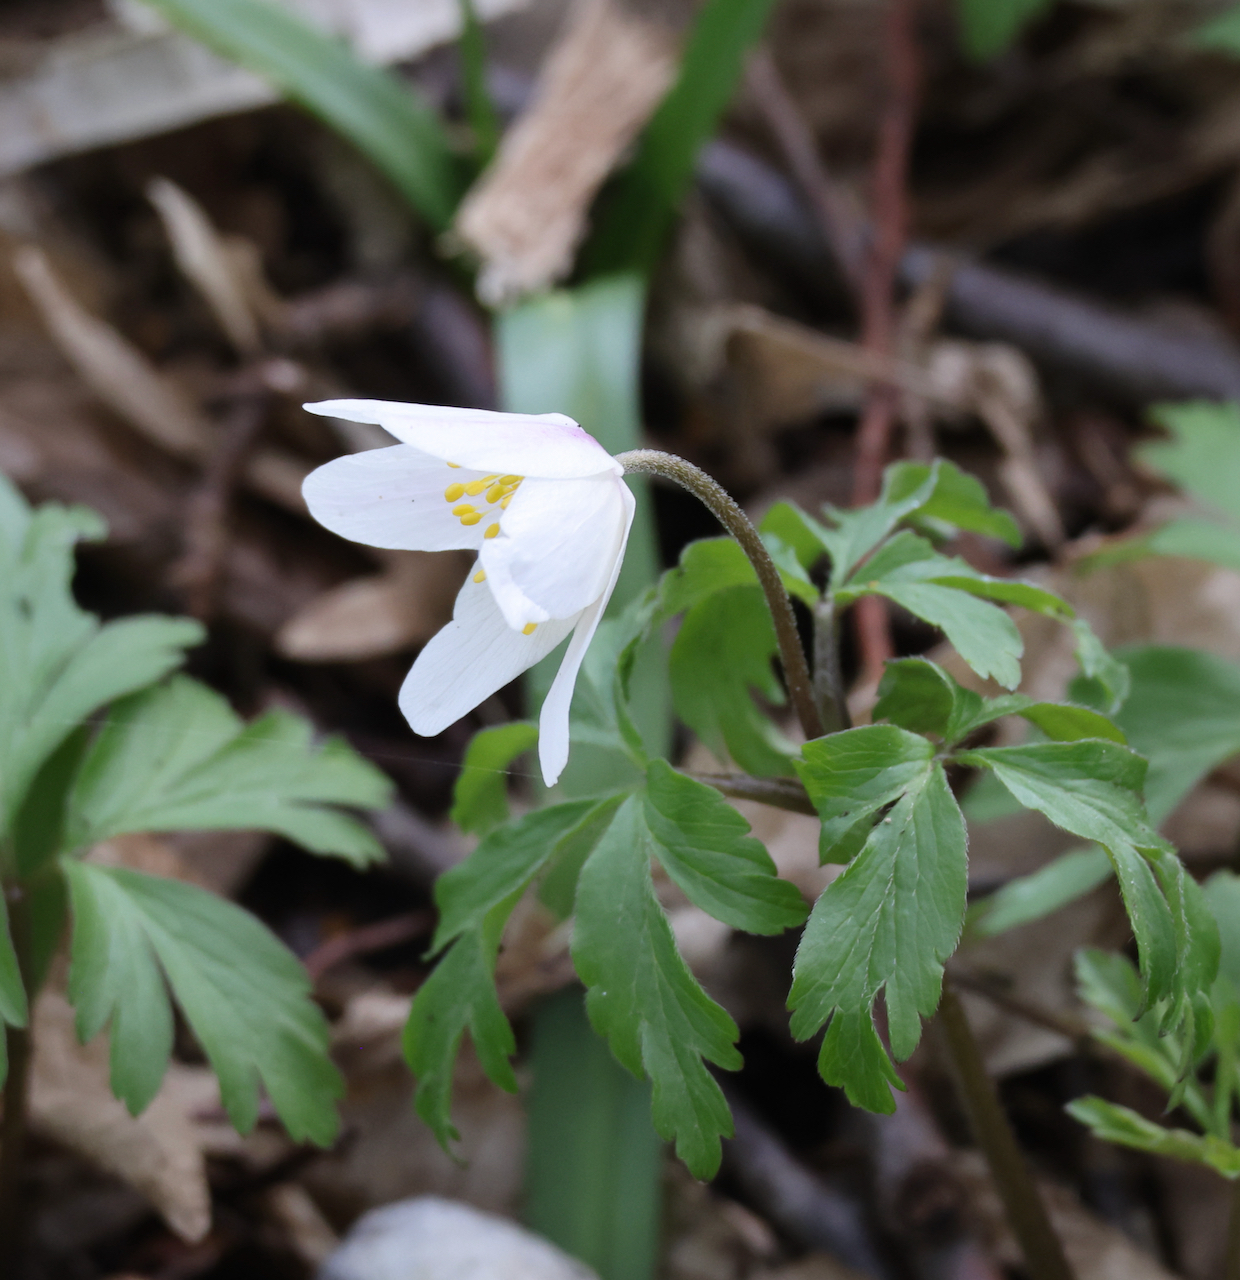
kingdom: Plantae
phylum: Tracheophyta
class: Magnoliopsida
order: Ranunculales
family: Ranunculaceae
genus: Anemone
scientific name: Anemone nemorosa
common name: Wood anemone
